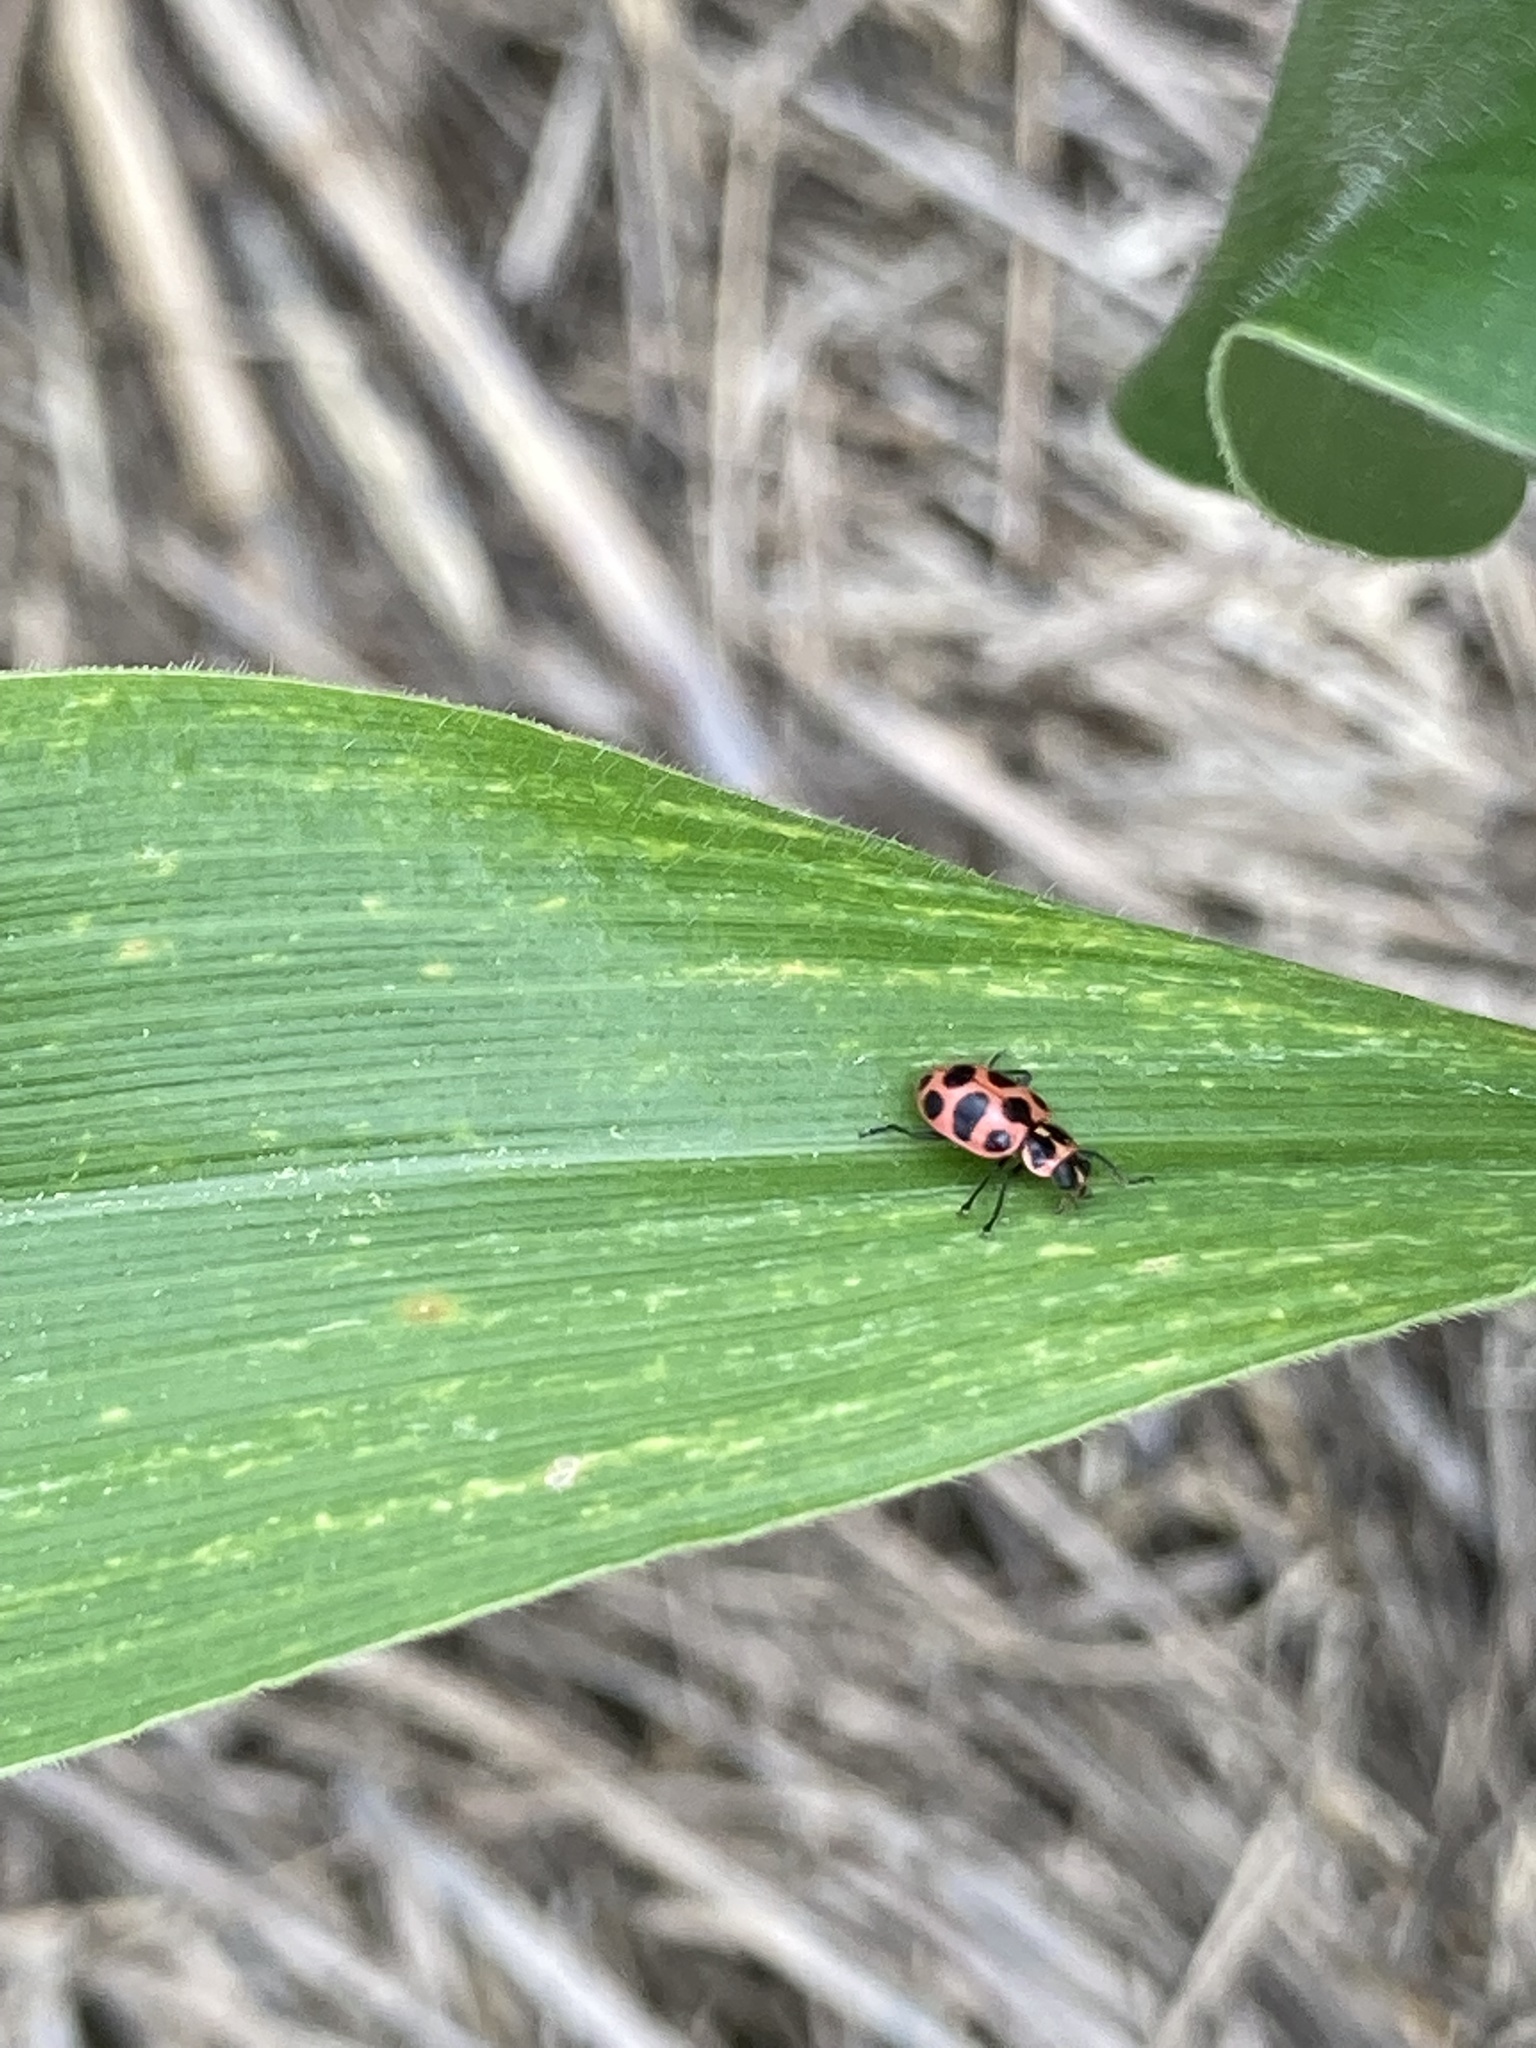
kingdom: Animalia
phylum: Arthropoda
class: Insecta
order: Coleoptera
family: Coccinellidae
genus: Coleomegilla
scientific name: Coleomegilla maculata
